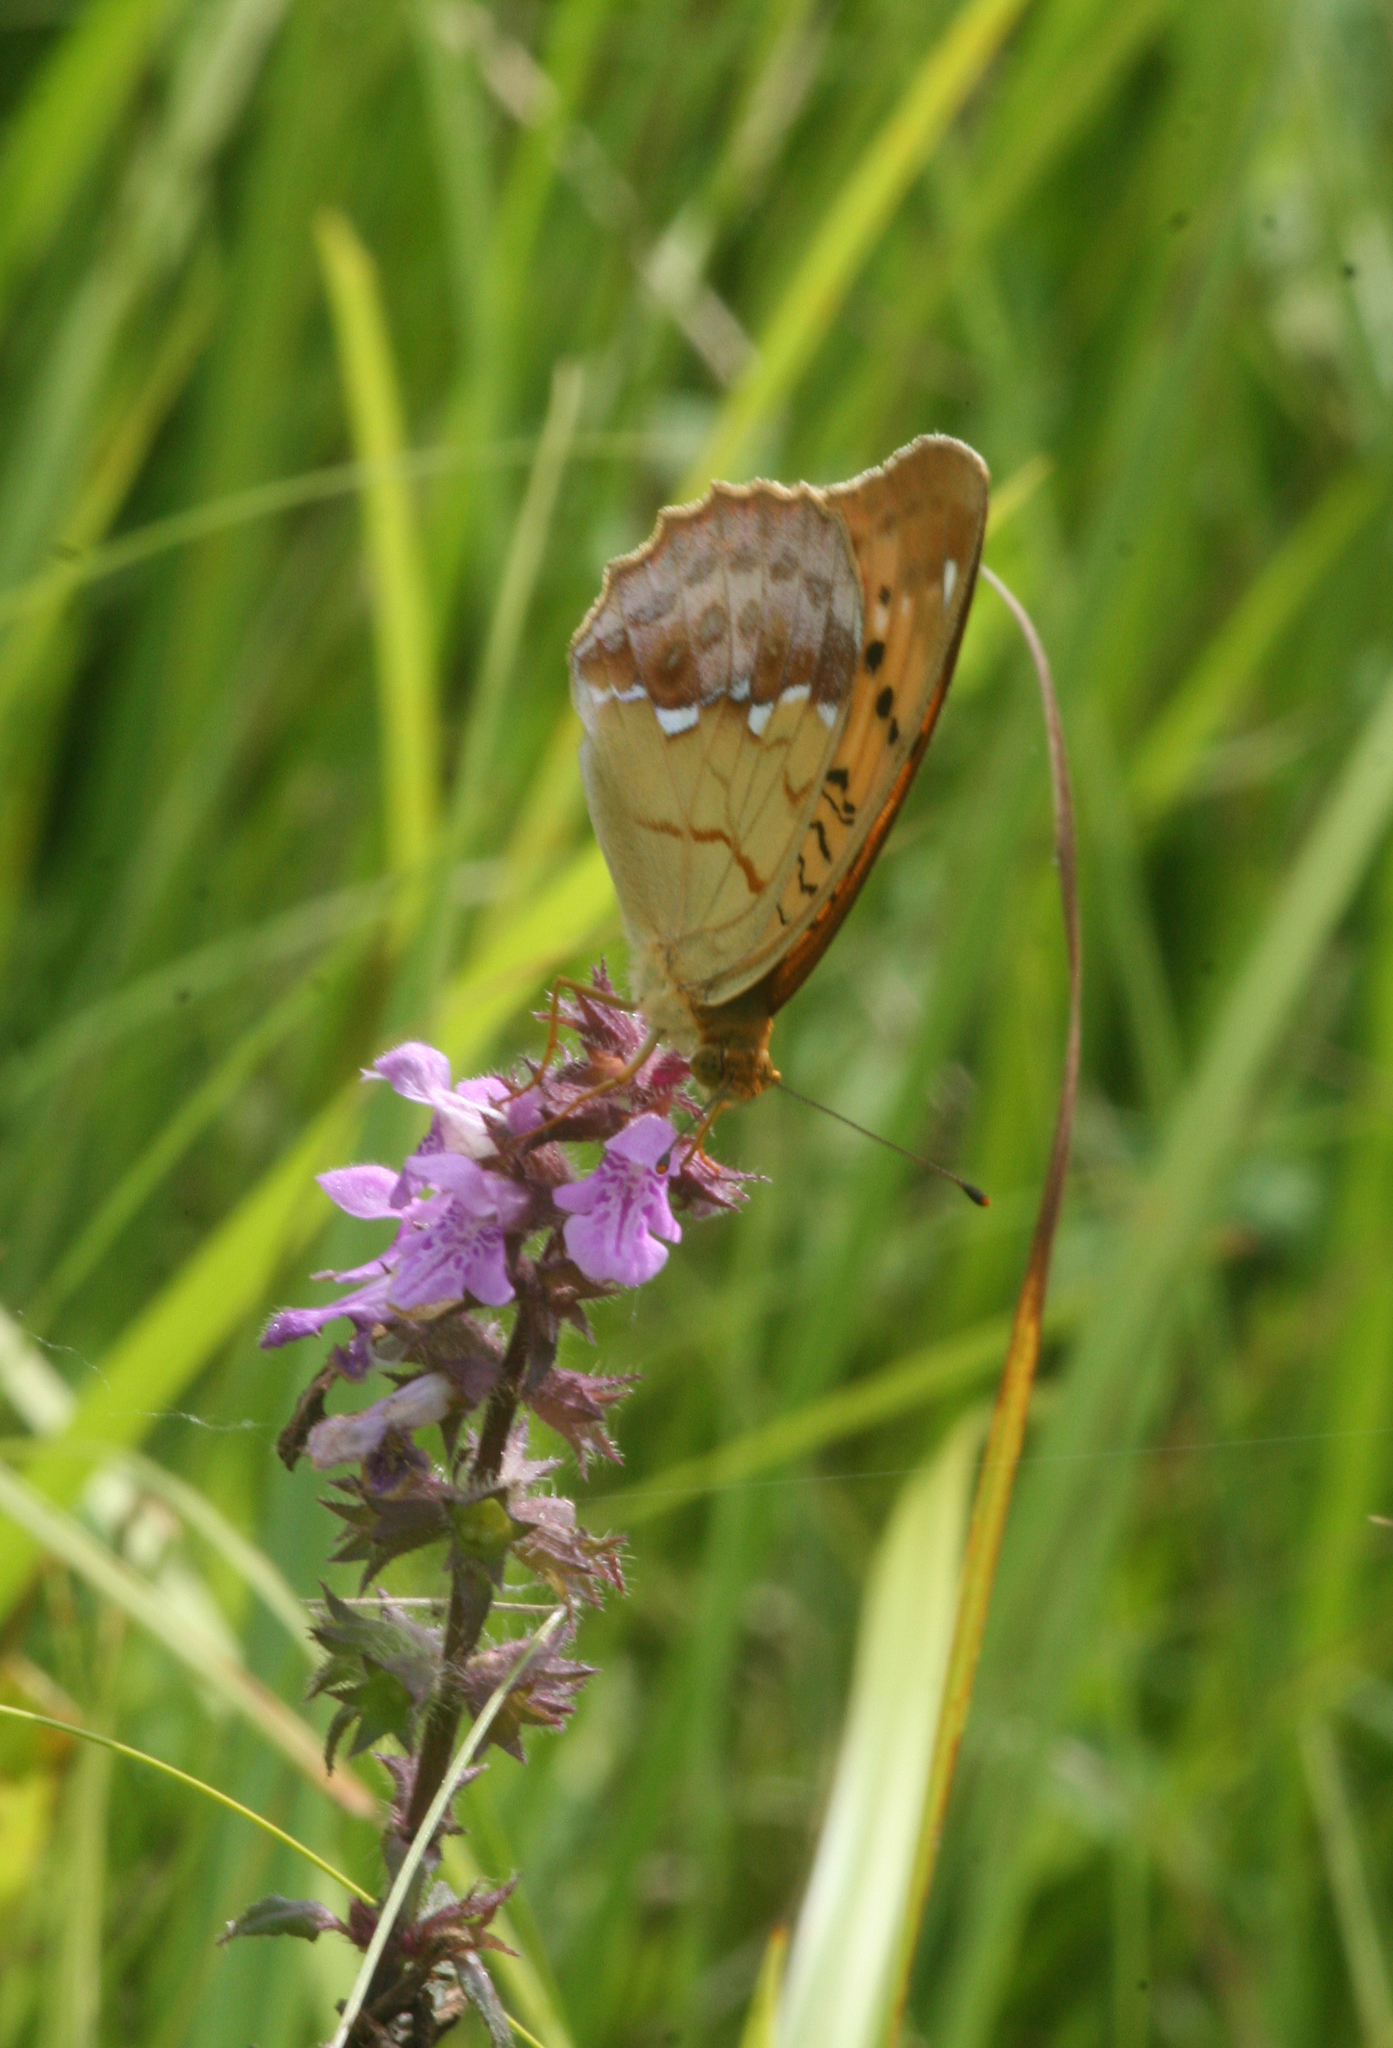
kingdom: Animalia
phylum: Arthropoda
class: Insecta
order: Lepidoptera
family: Nymphalidae
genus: Argyronome
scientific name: Argyronome ruslana
